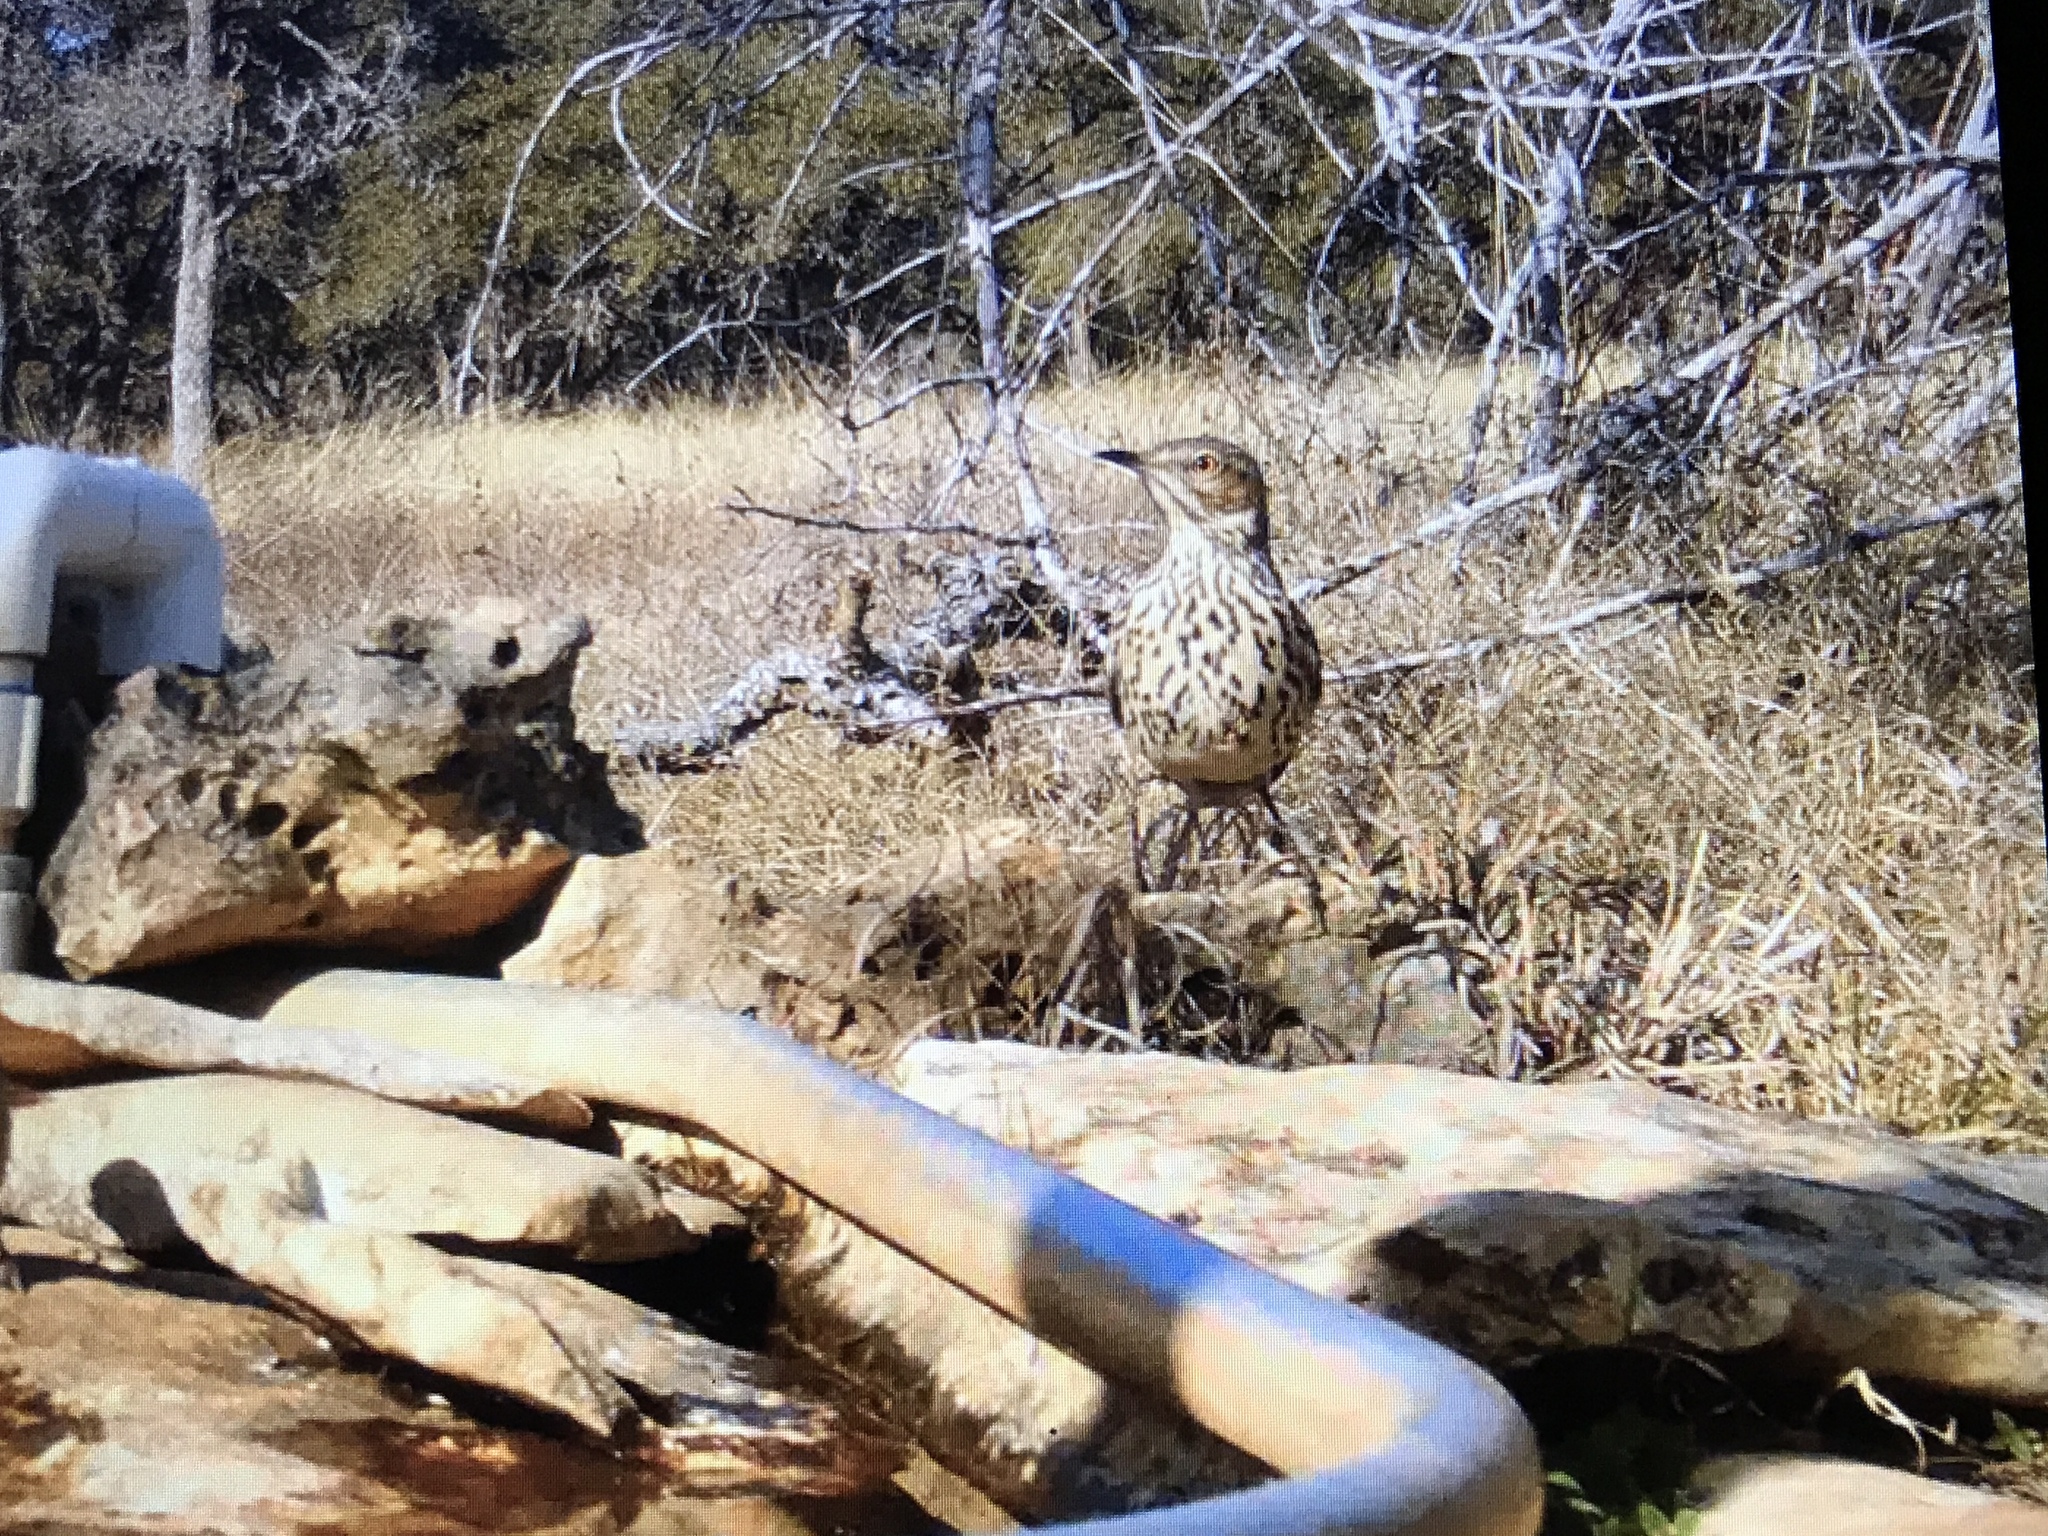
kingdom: Animalia
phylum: Chordata
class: Aves
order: Passeriformes
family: Mimidae
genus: Oreoscoptes
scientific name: Oreoscoptes montanus
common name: Sage thrasher
